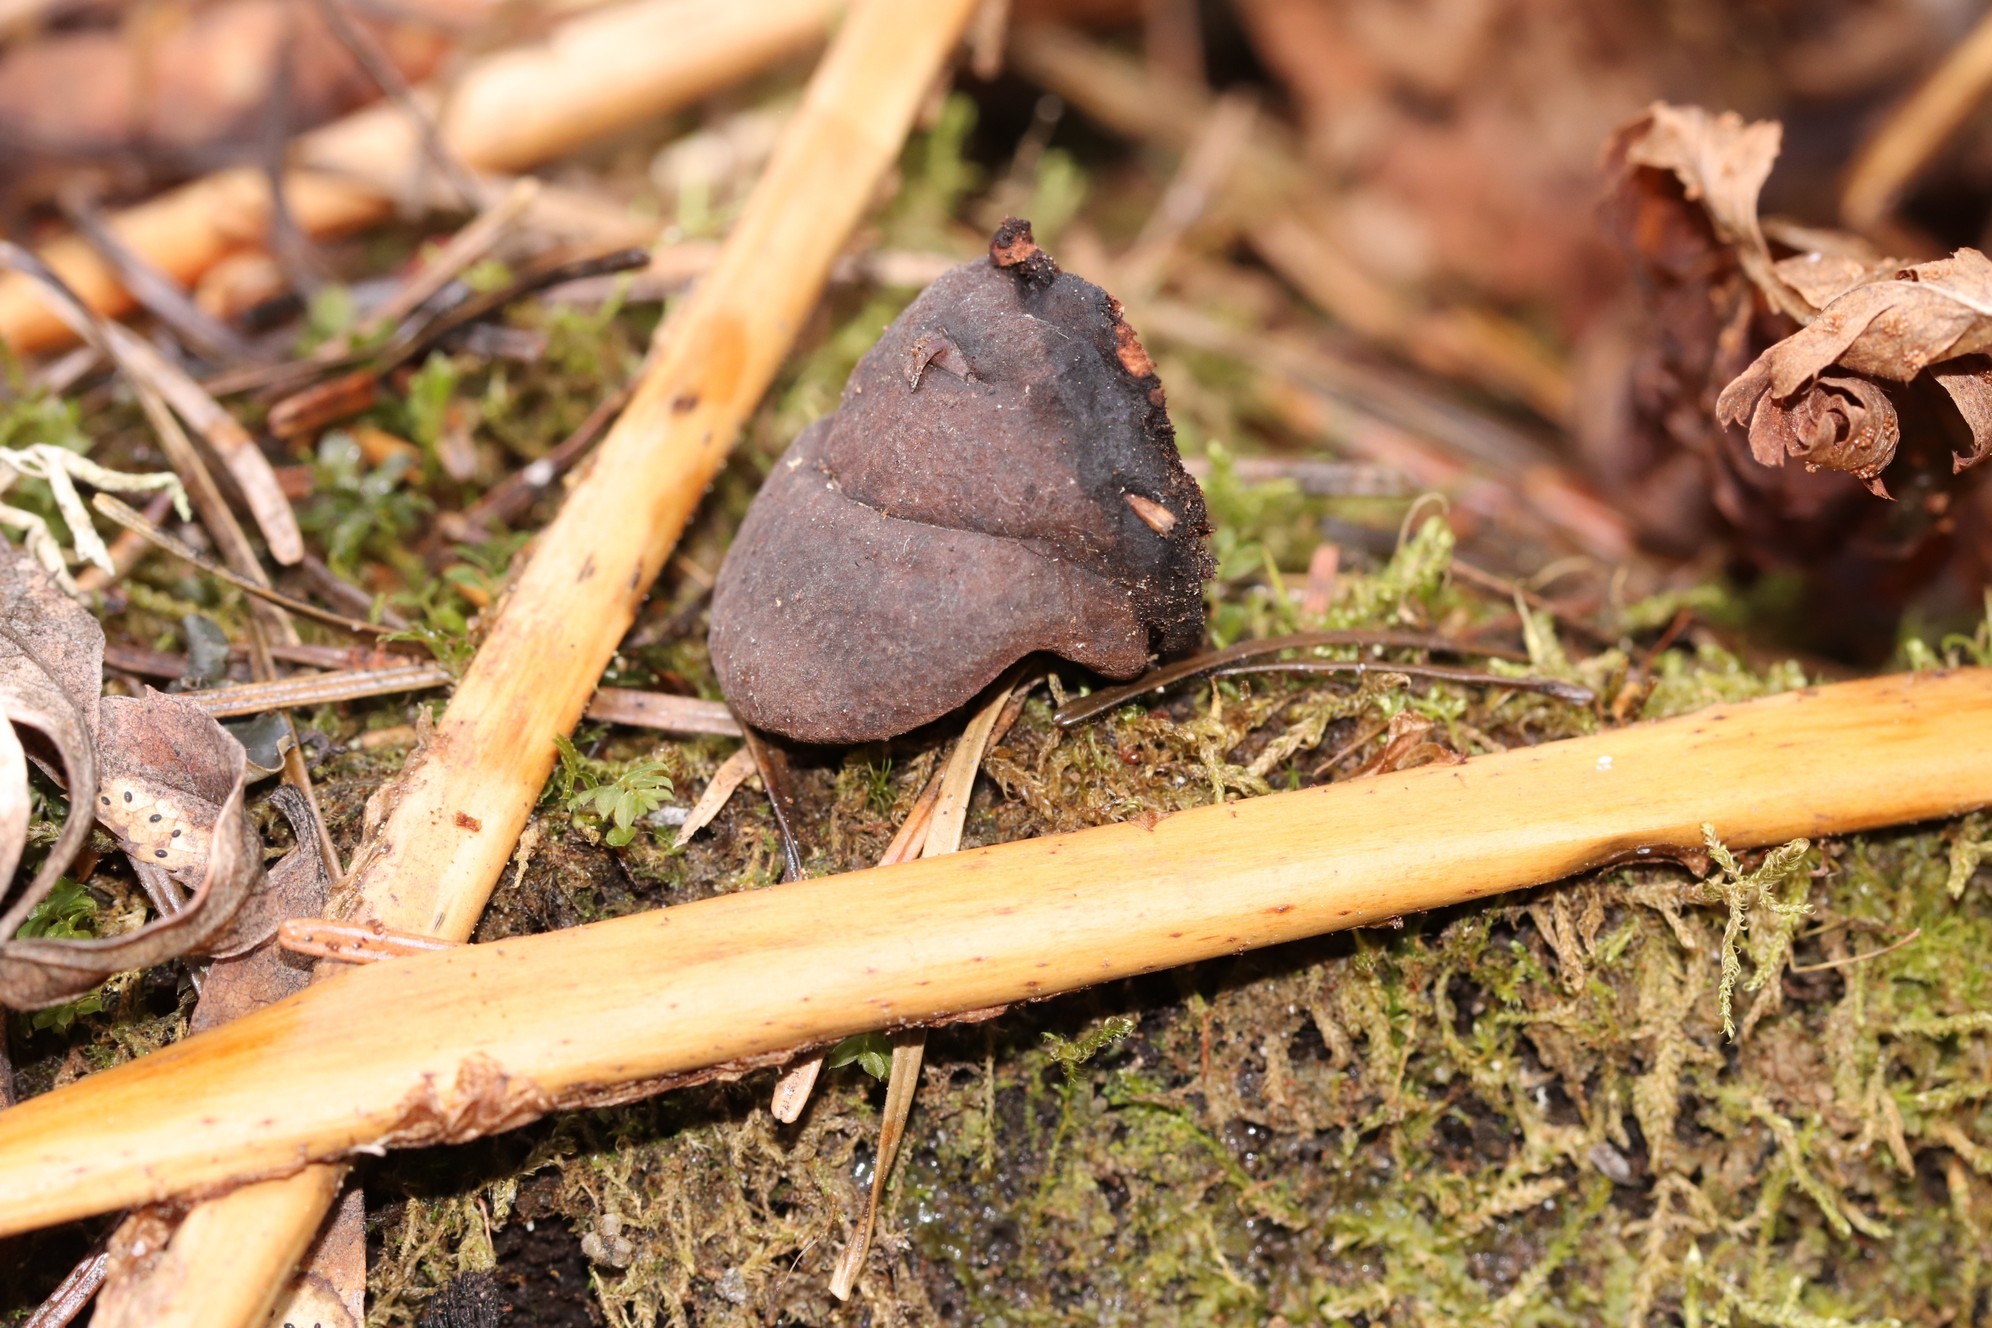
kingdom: Fungi
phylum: Basidiomycota
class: Agaricomycetes
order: Polyporales
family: Fomitopsidaceae
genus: Rhodofomes
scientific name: Rhodofomes roseus
